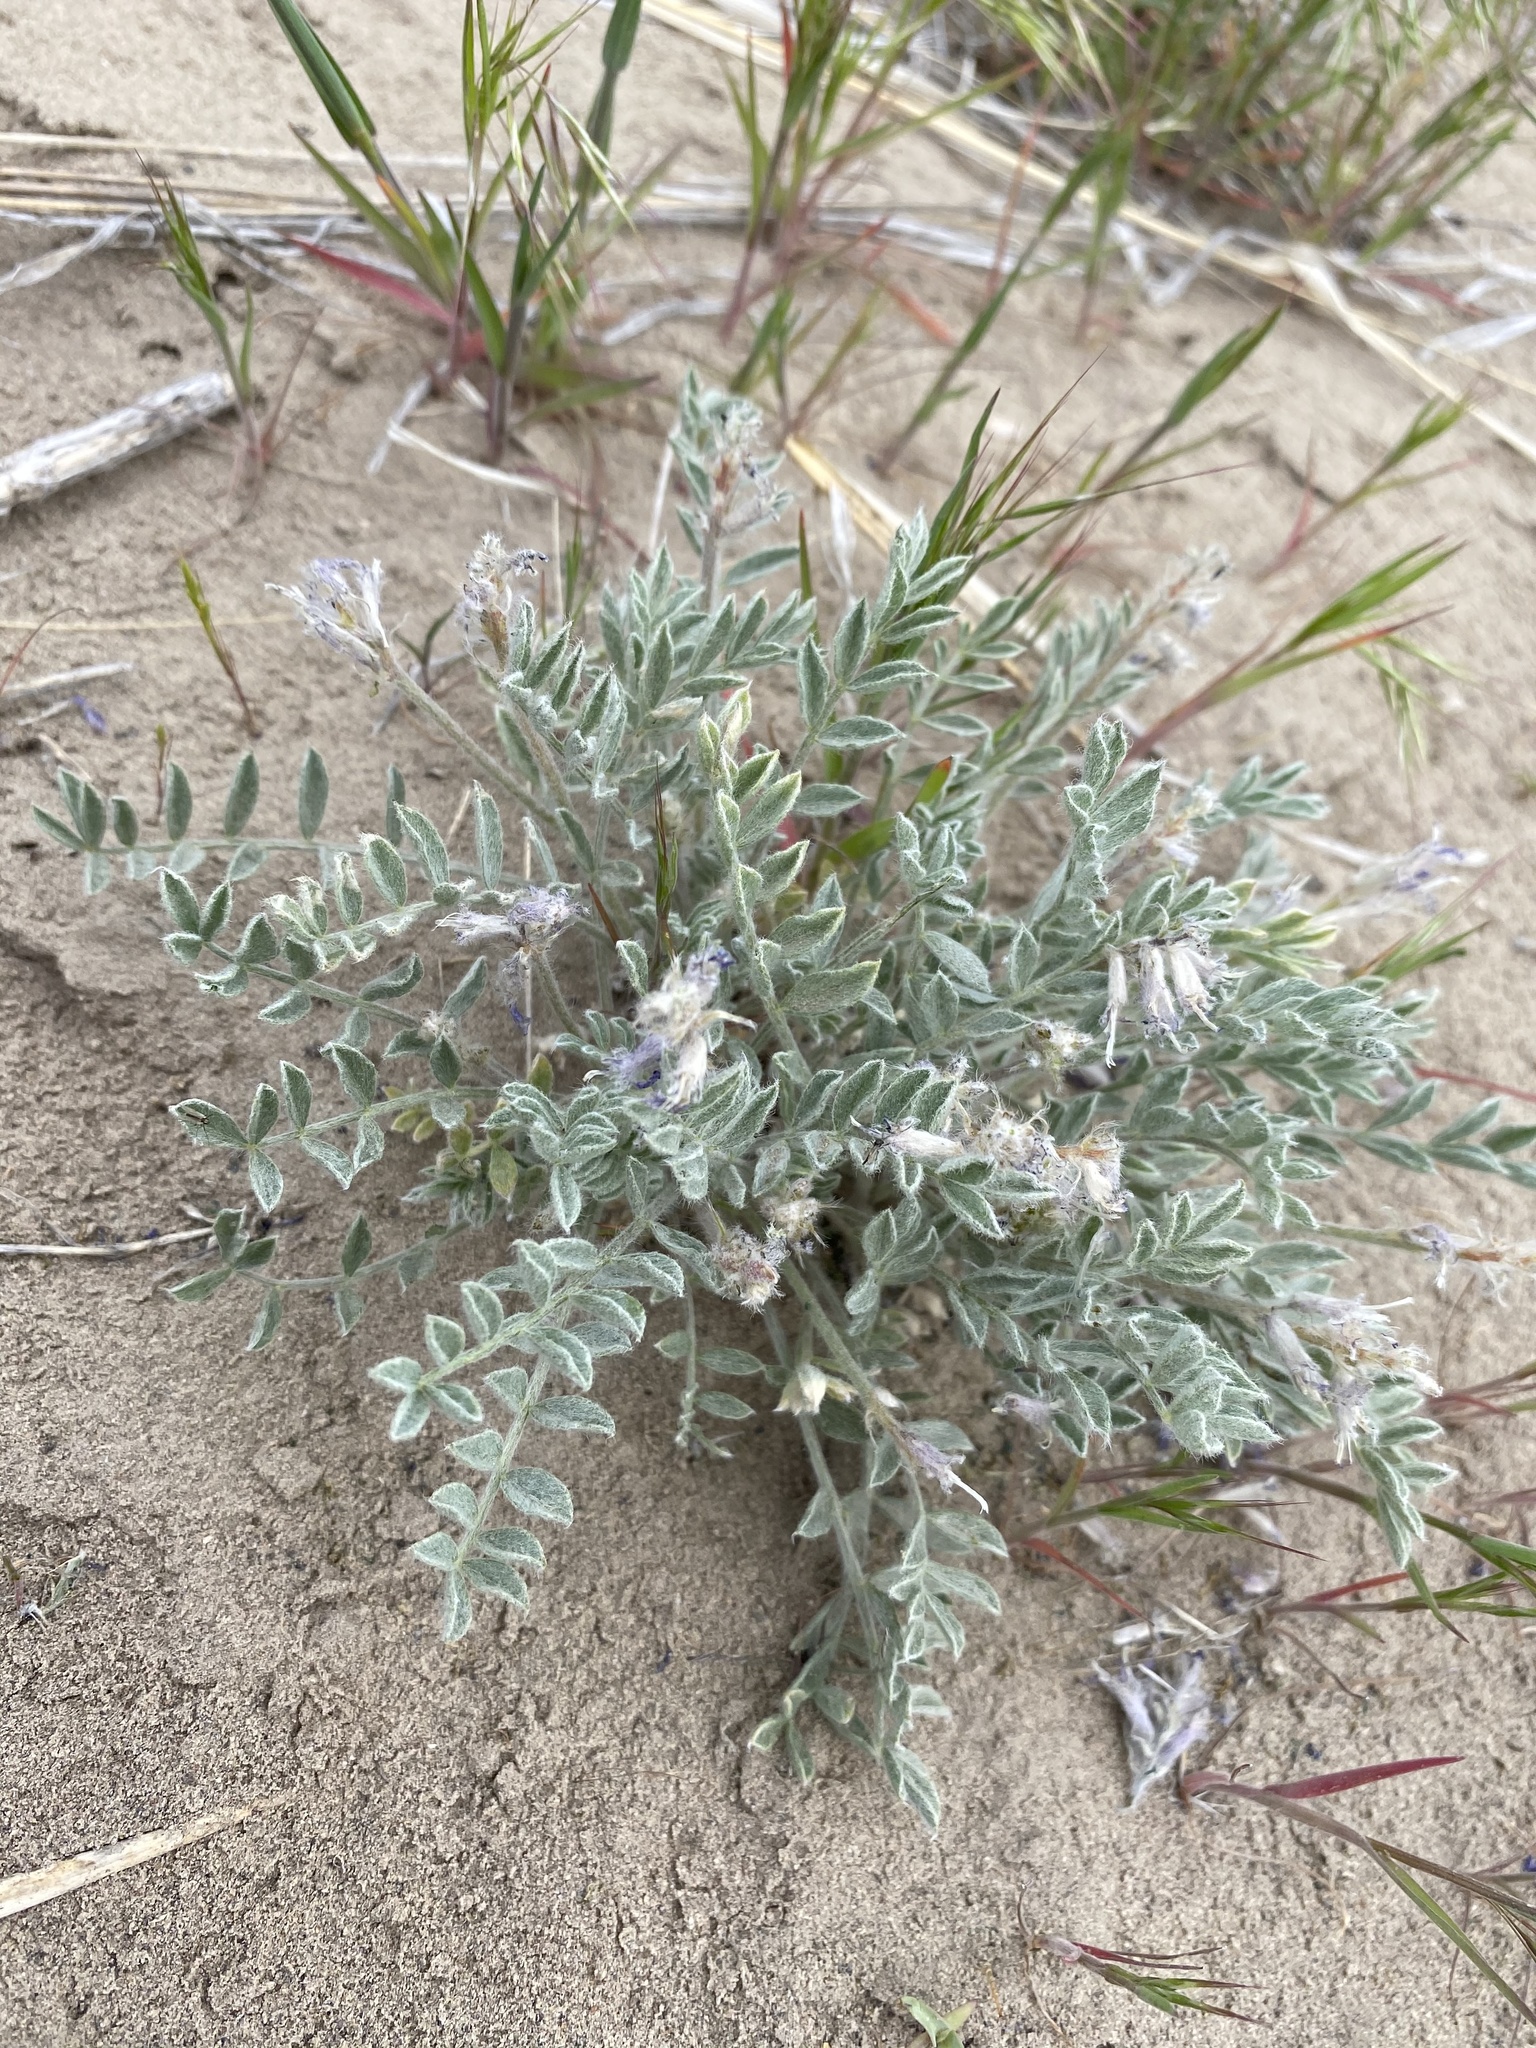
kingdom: Plantae
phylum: Tracheophyta
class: Magnoliopsida
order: Fabales
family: Fabaceae
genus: Astragalus
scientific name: Astragalus purshii
